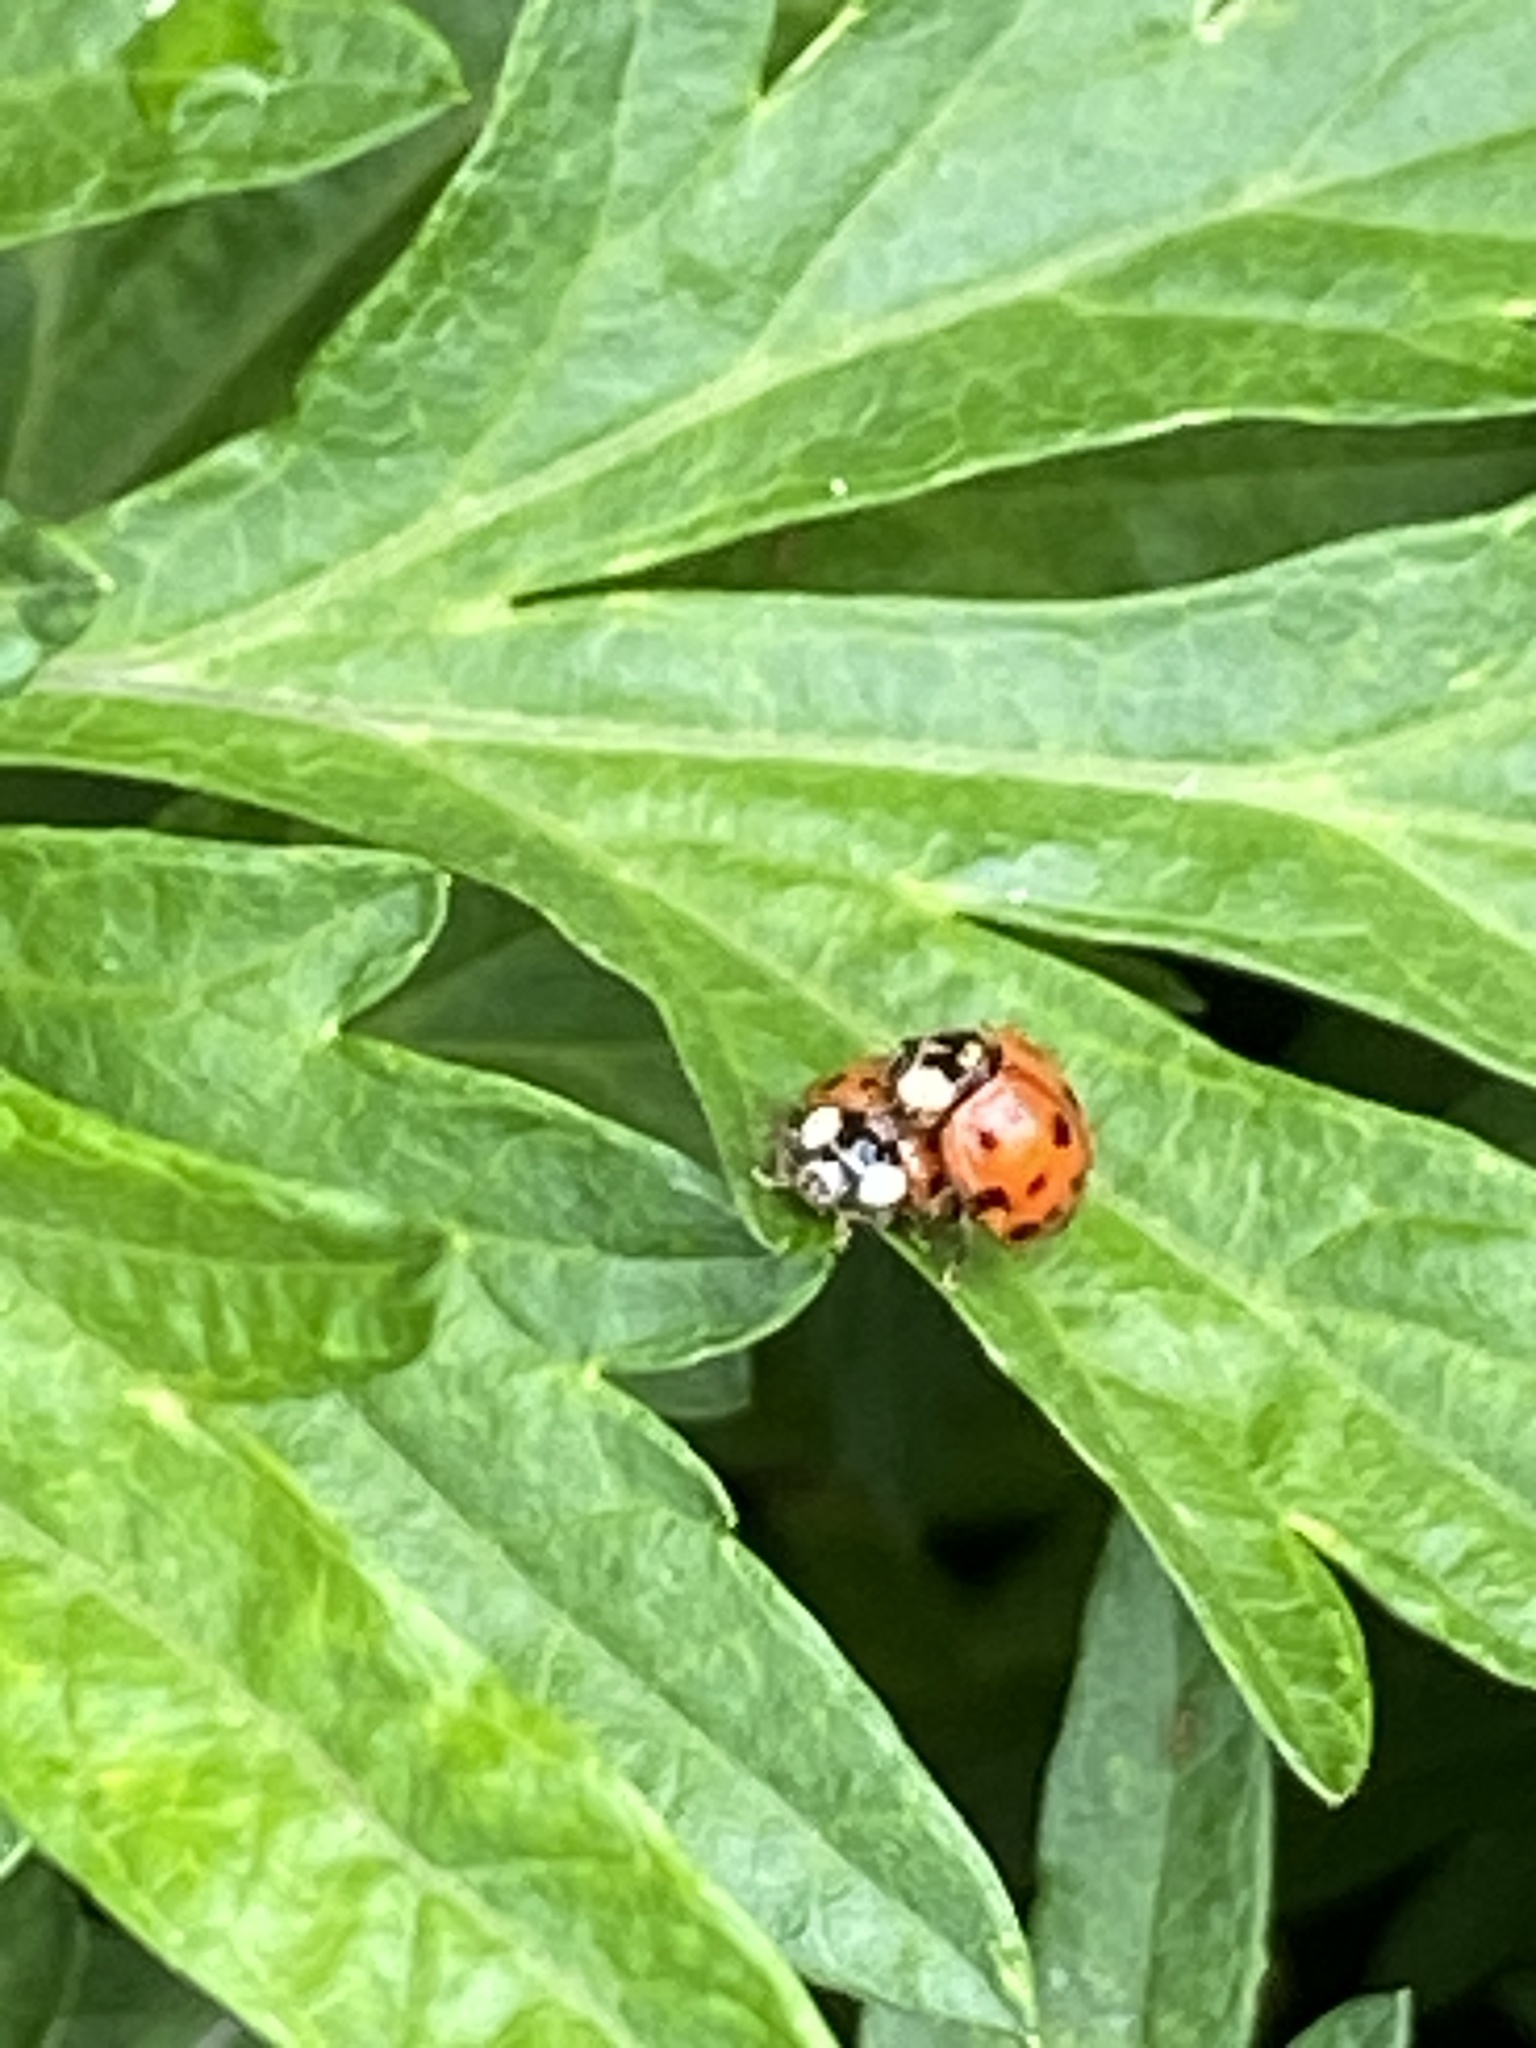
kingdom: Animalia
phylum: Arthropoda
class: Insecta
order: Coleoptera
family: Coccinellidae
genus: Harmonia
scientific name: Harmonia axyridis
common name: Harlequin ladybird
